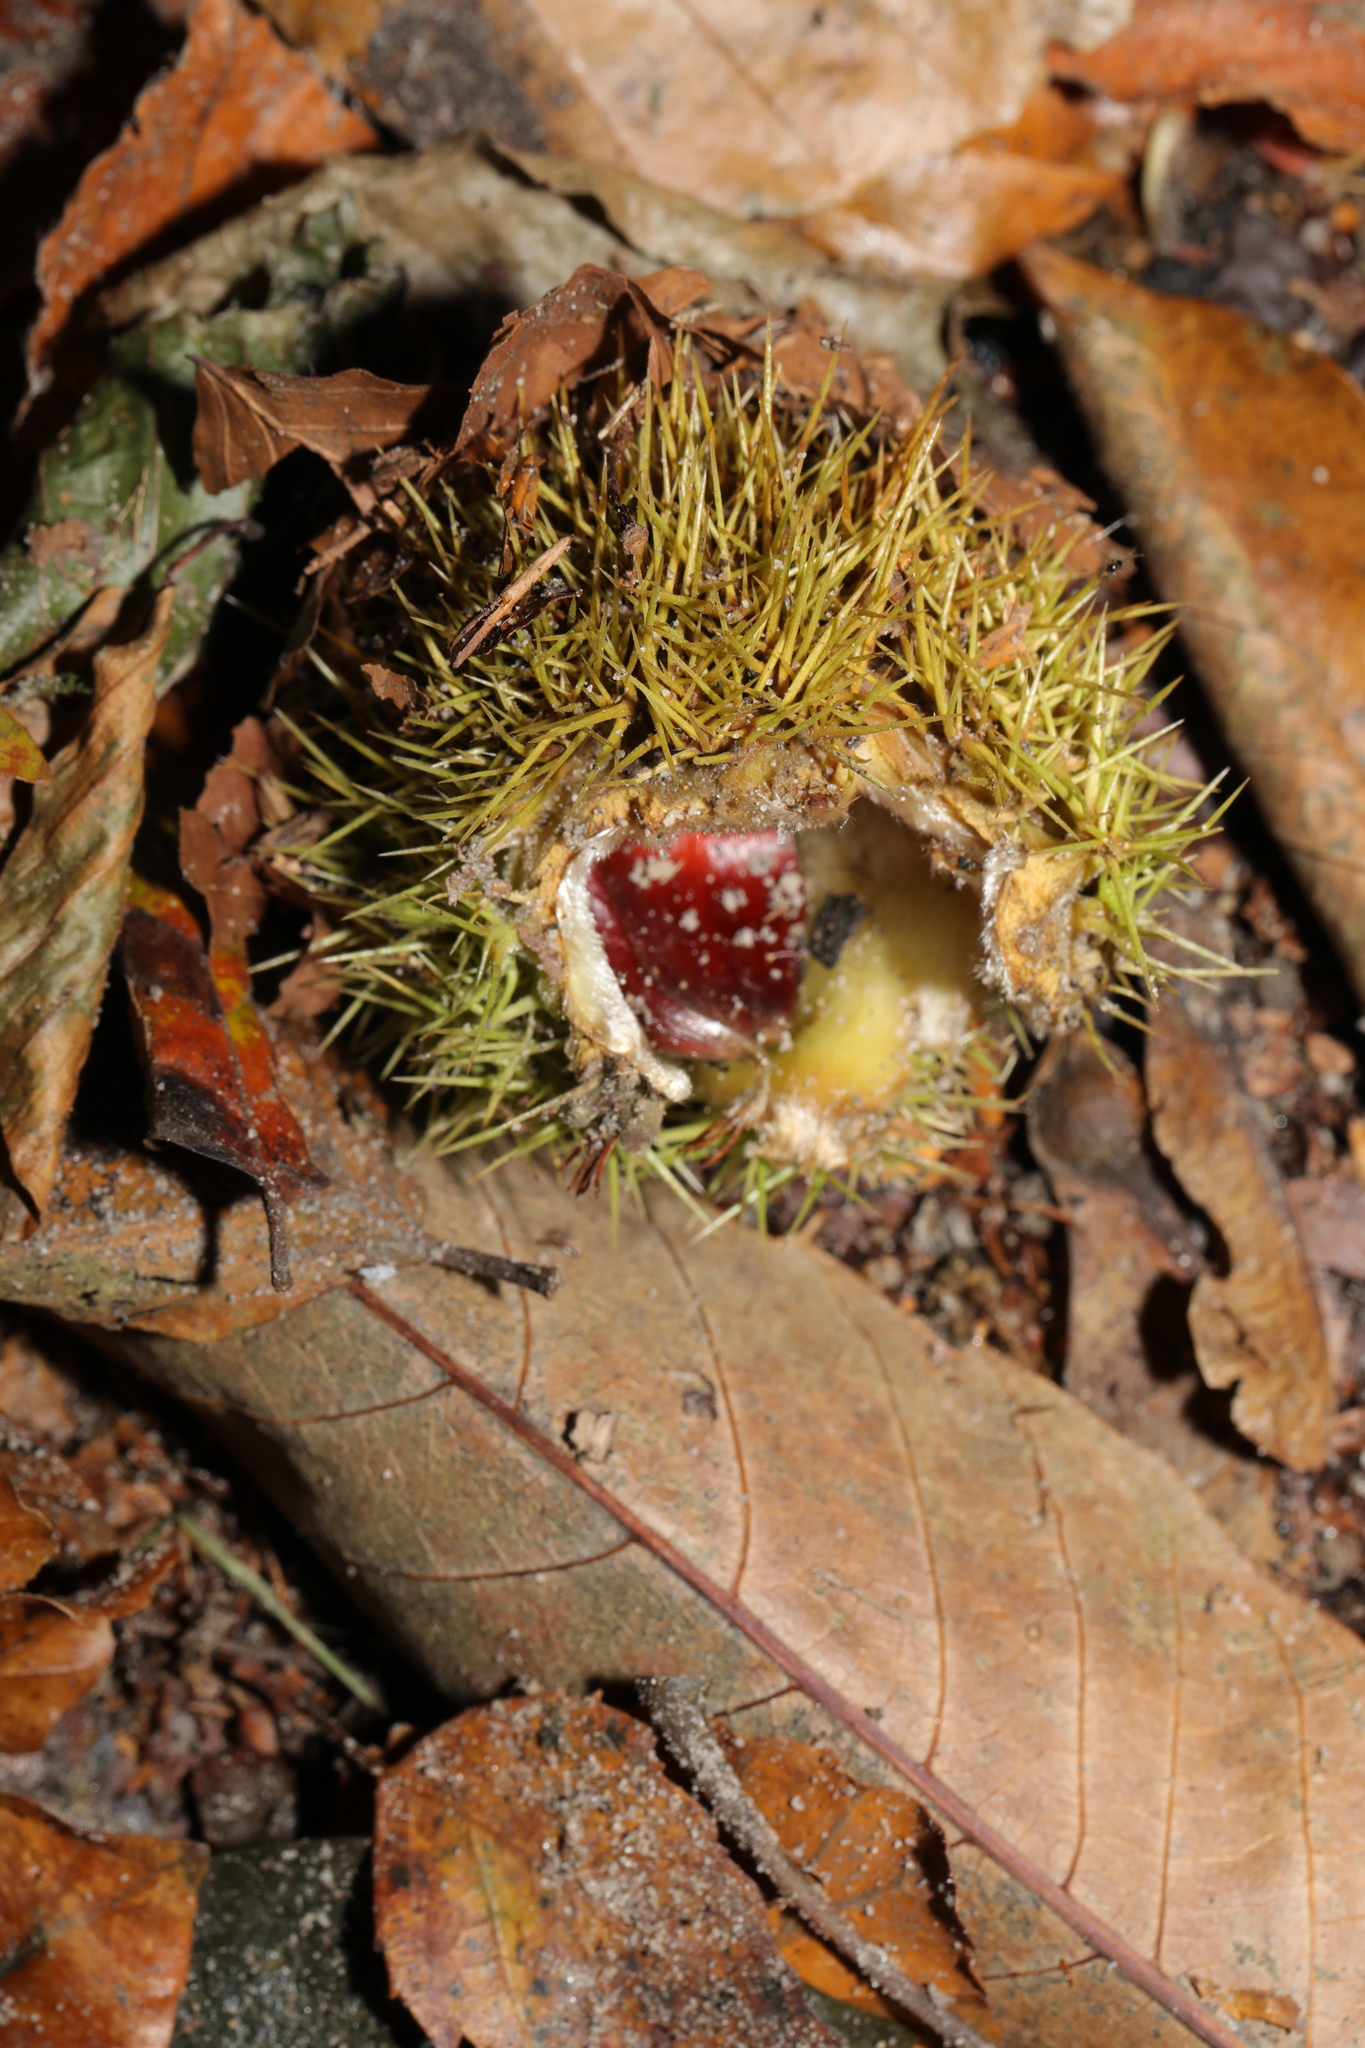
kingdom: Plantae
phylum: Tracheophyta
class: Magnoliopsida
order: Fagales
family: Fagaceae
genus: Castanea
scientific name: Castanea sativa
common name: Sweet chestnut
